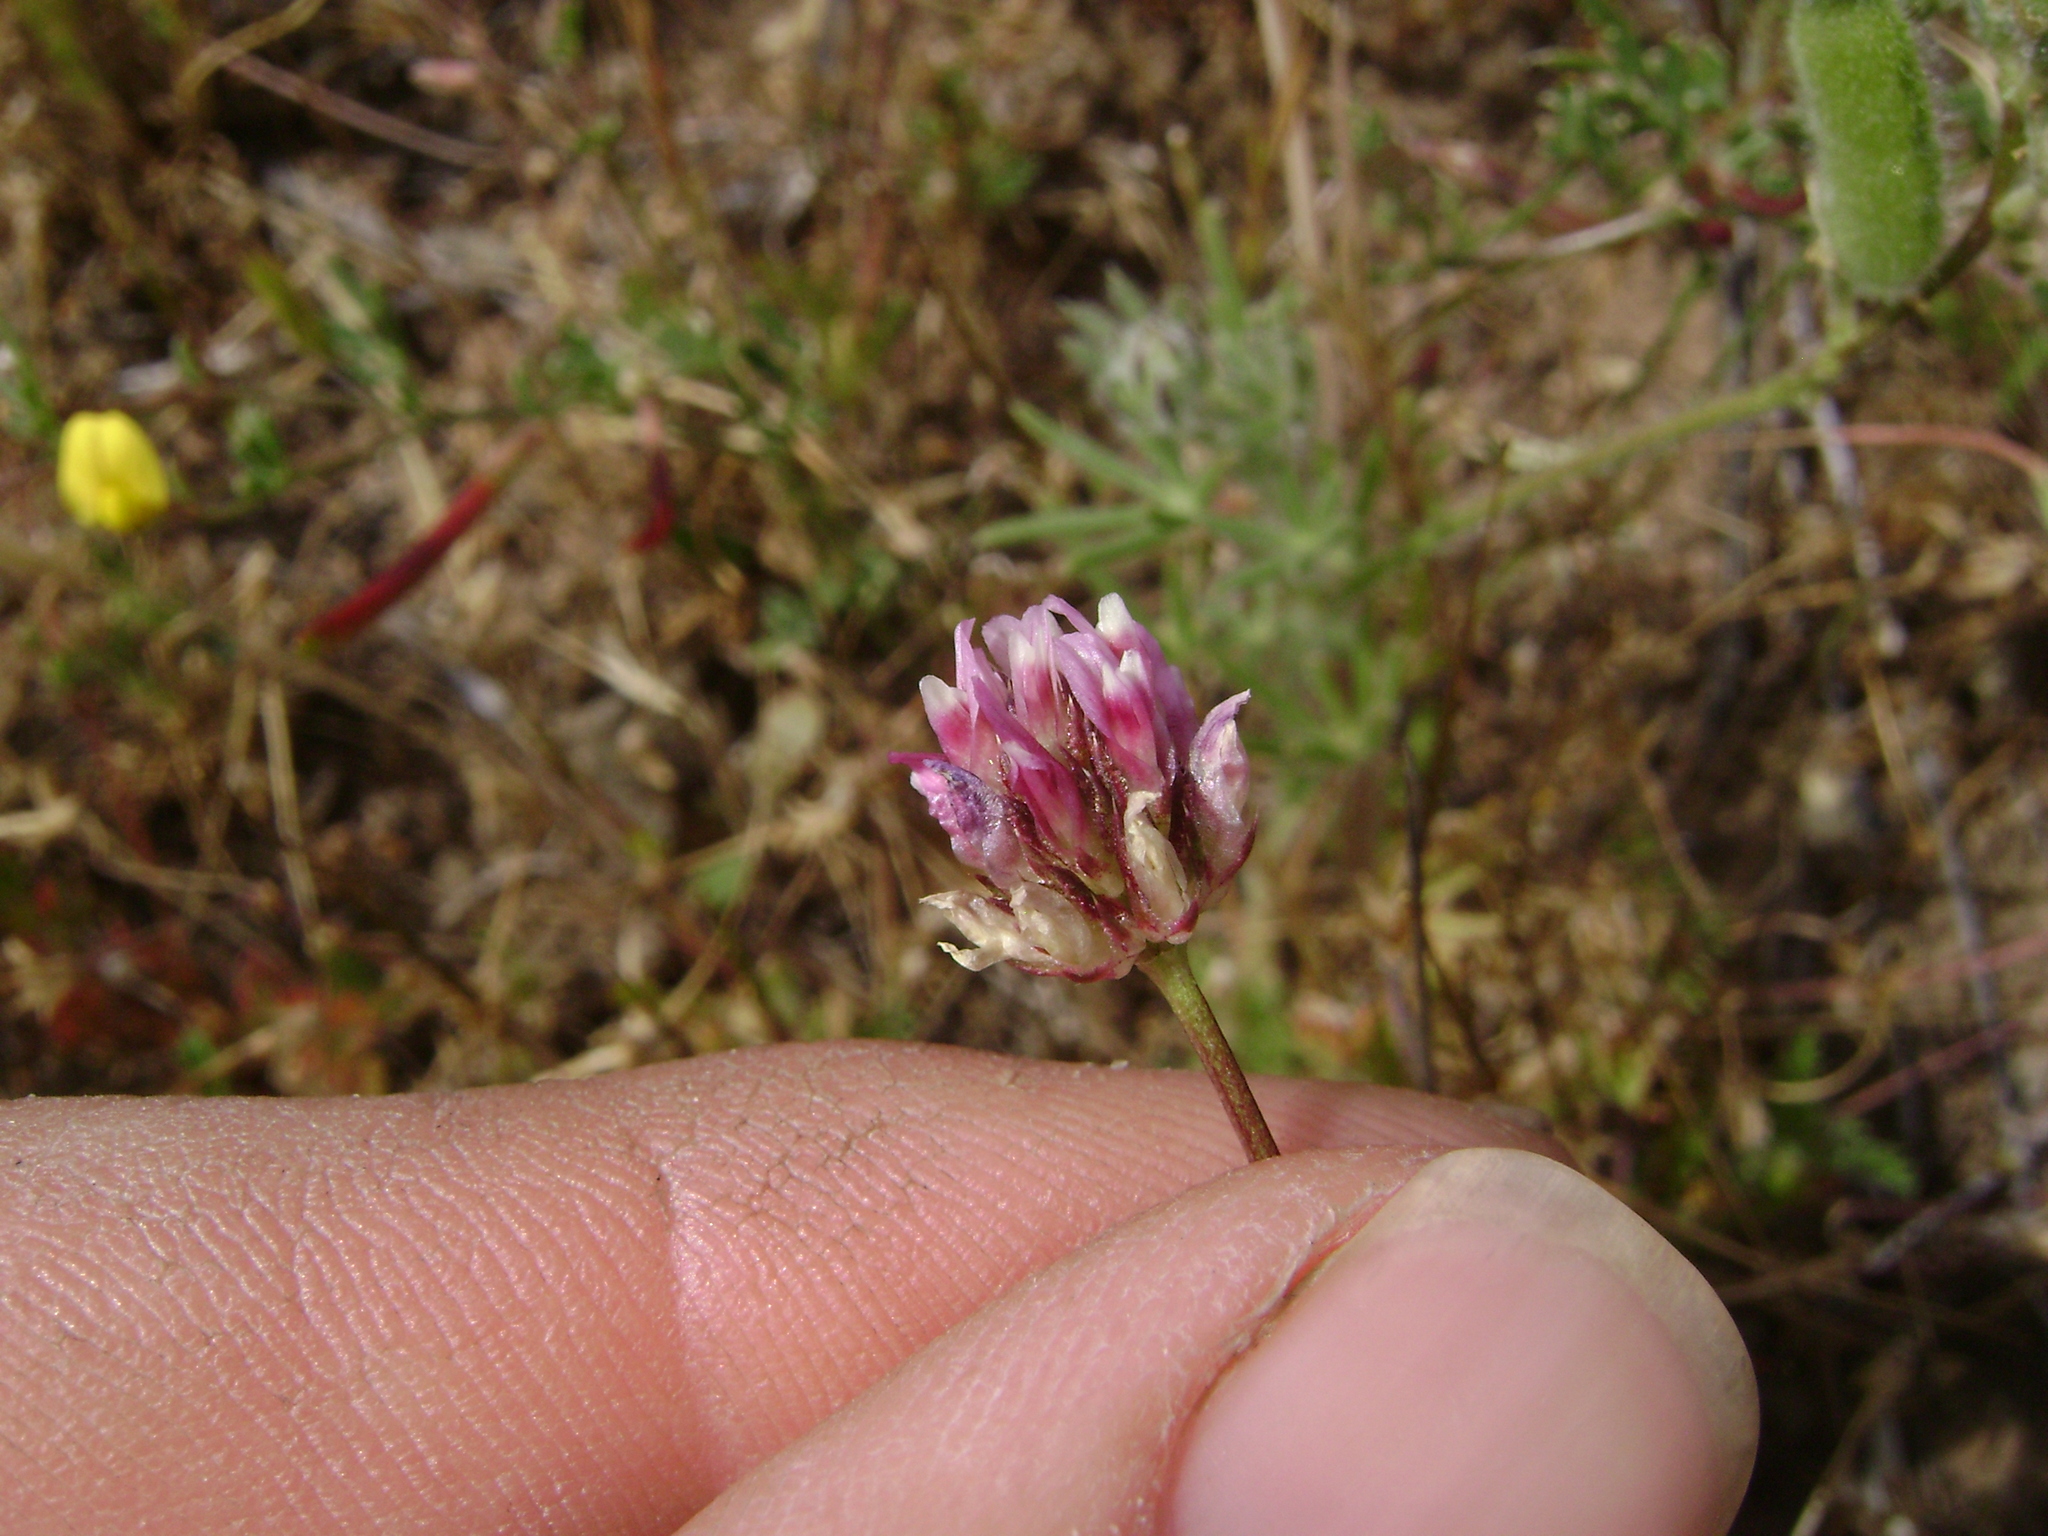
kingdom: Plantae
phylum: Tracheophyta
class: Magnoliopsida
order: Fabales
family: Fabaceae
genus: Trifolium
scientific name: Trifolium ciliolatum
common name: Foothill clover
